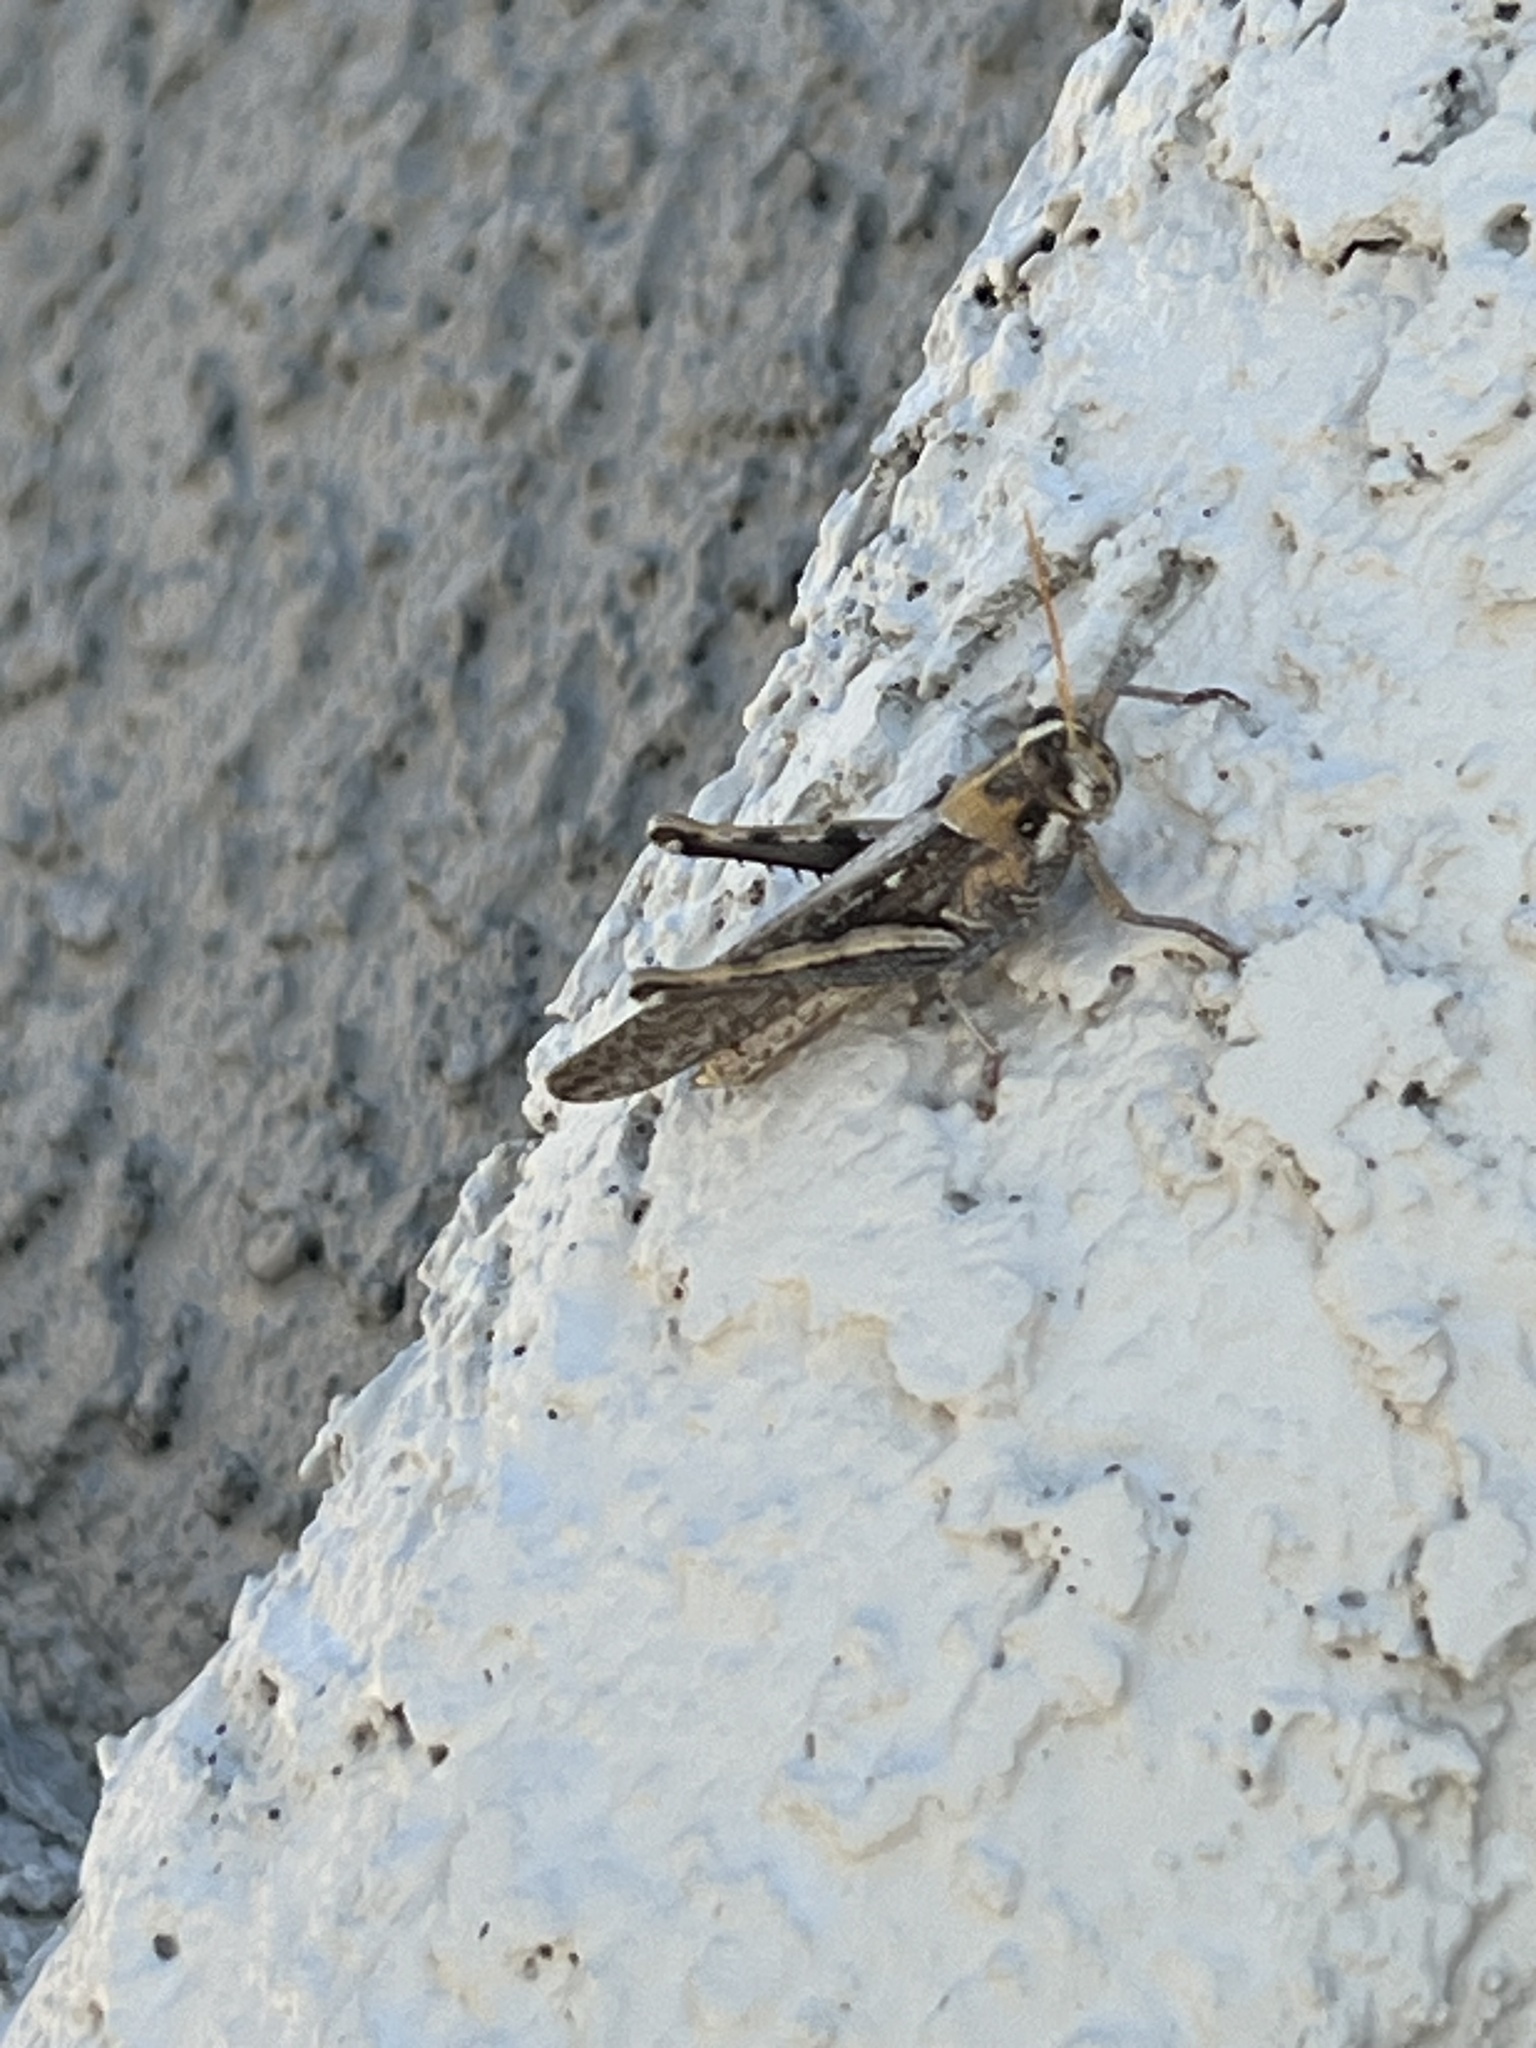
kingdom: Animalia
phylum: Arthropoda
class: Insecta
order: Orthoptera
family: Acrididae
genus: Schistocerca
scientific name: Schistocerca nitens
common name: Vagrant grasshopper
